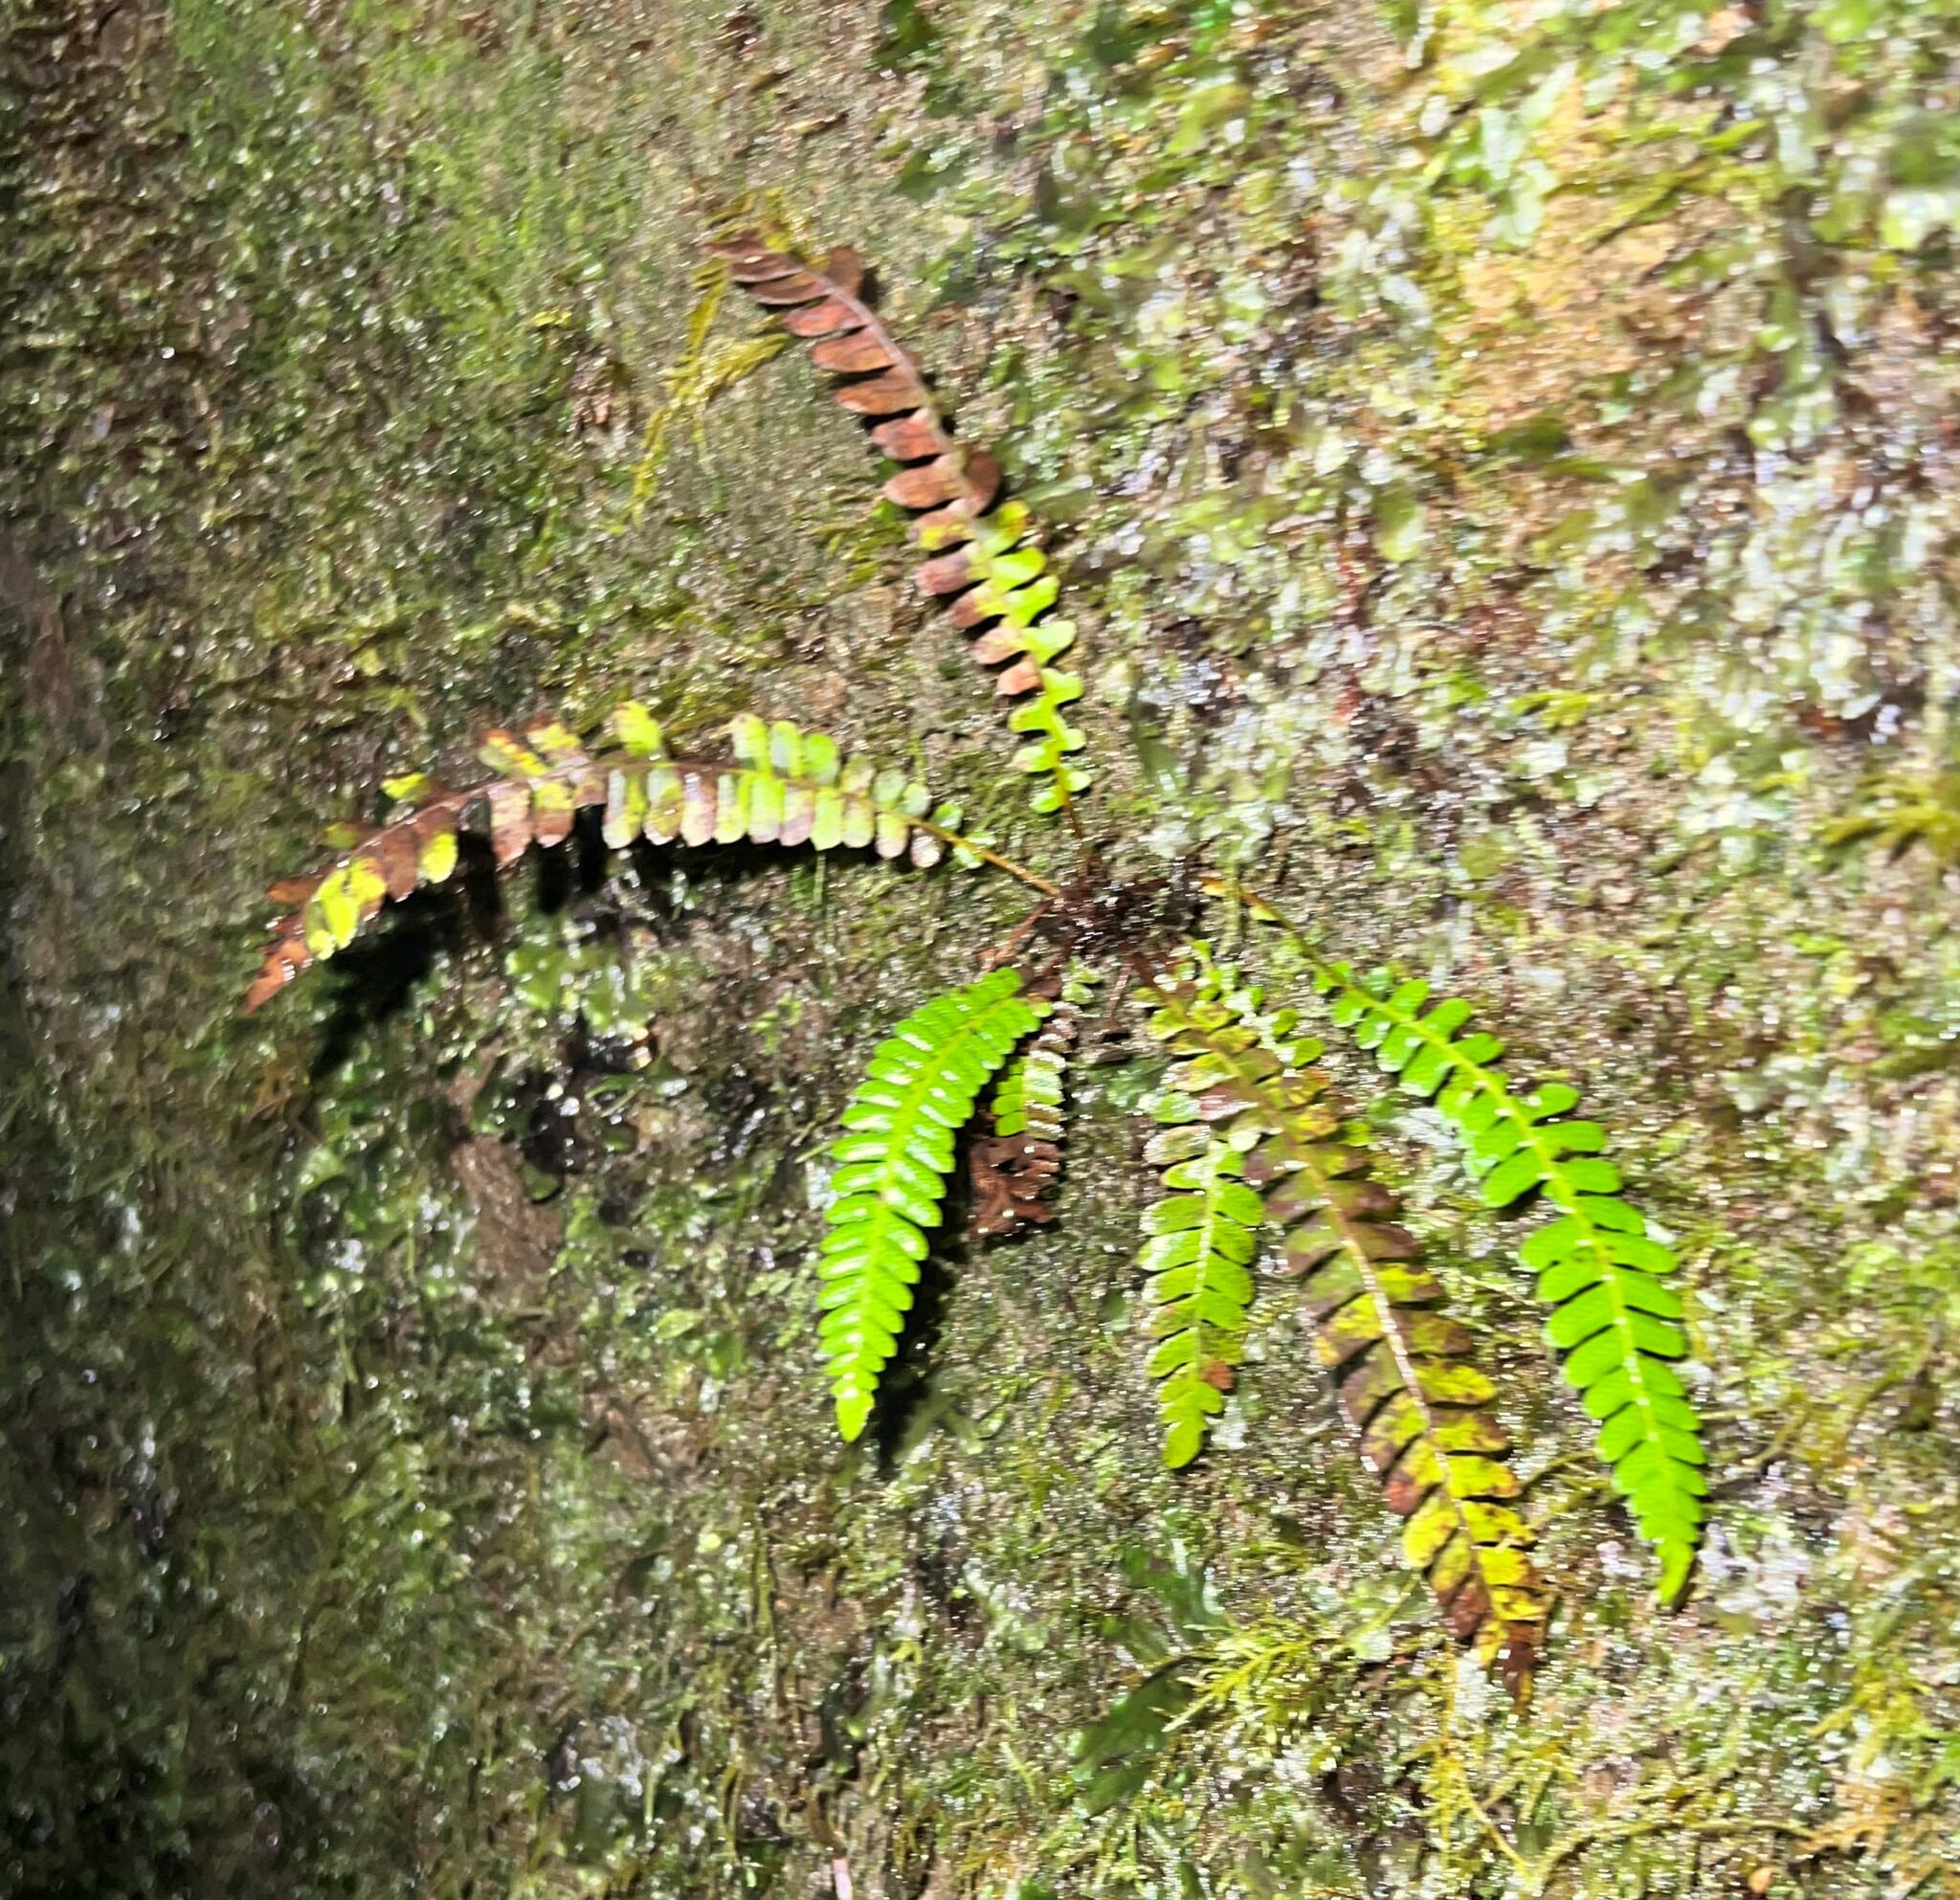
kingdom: Plantae
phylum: Tracheophyta
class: Polypodiopsida
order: Polypodiales
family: Blechnaceae
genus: Struthiopteris
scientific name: Struthiopteris spicant
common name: Deer fern
